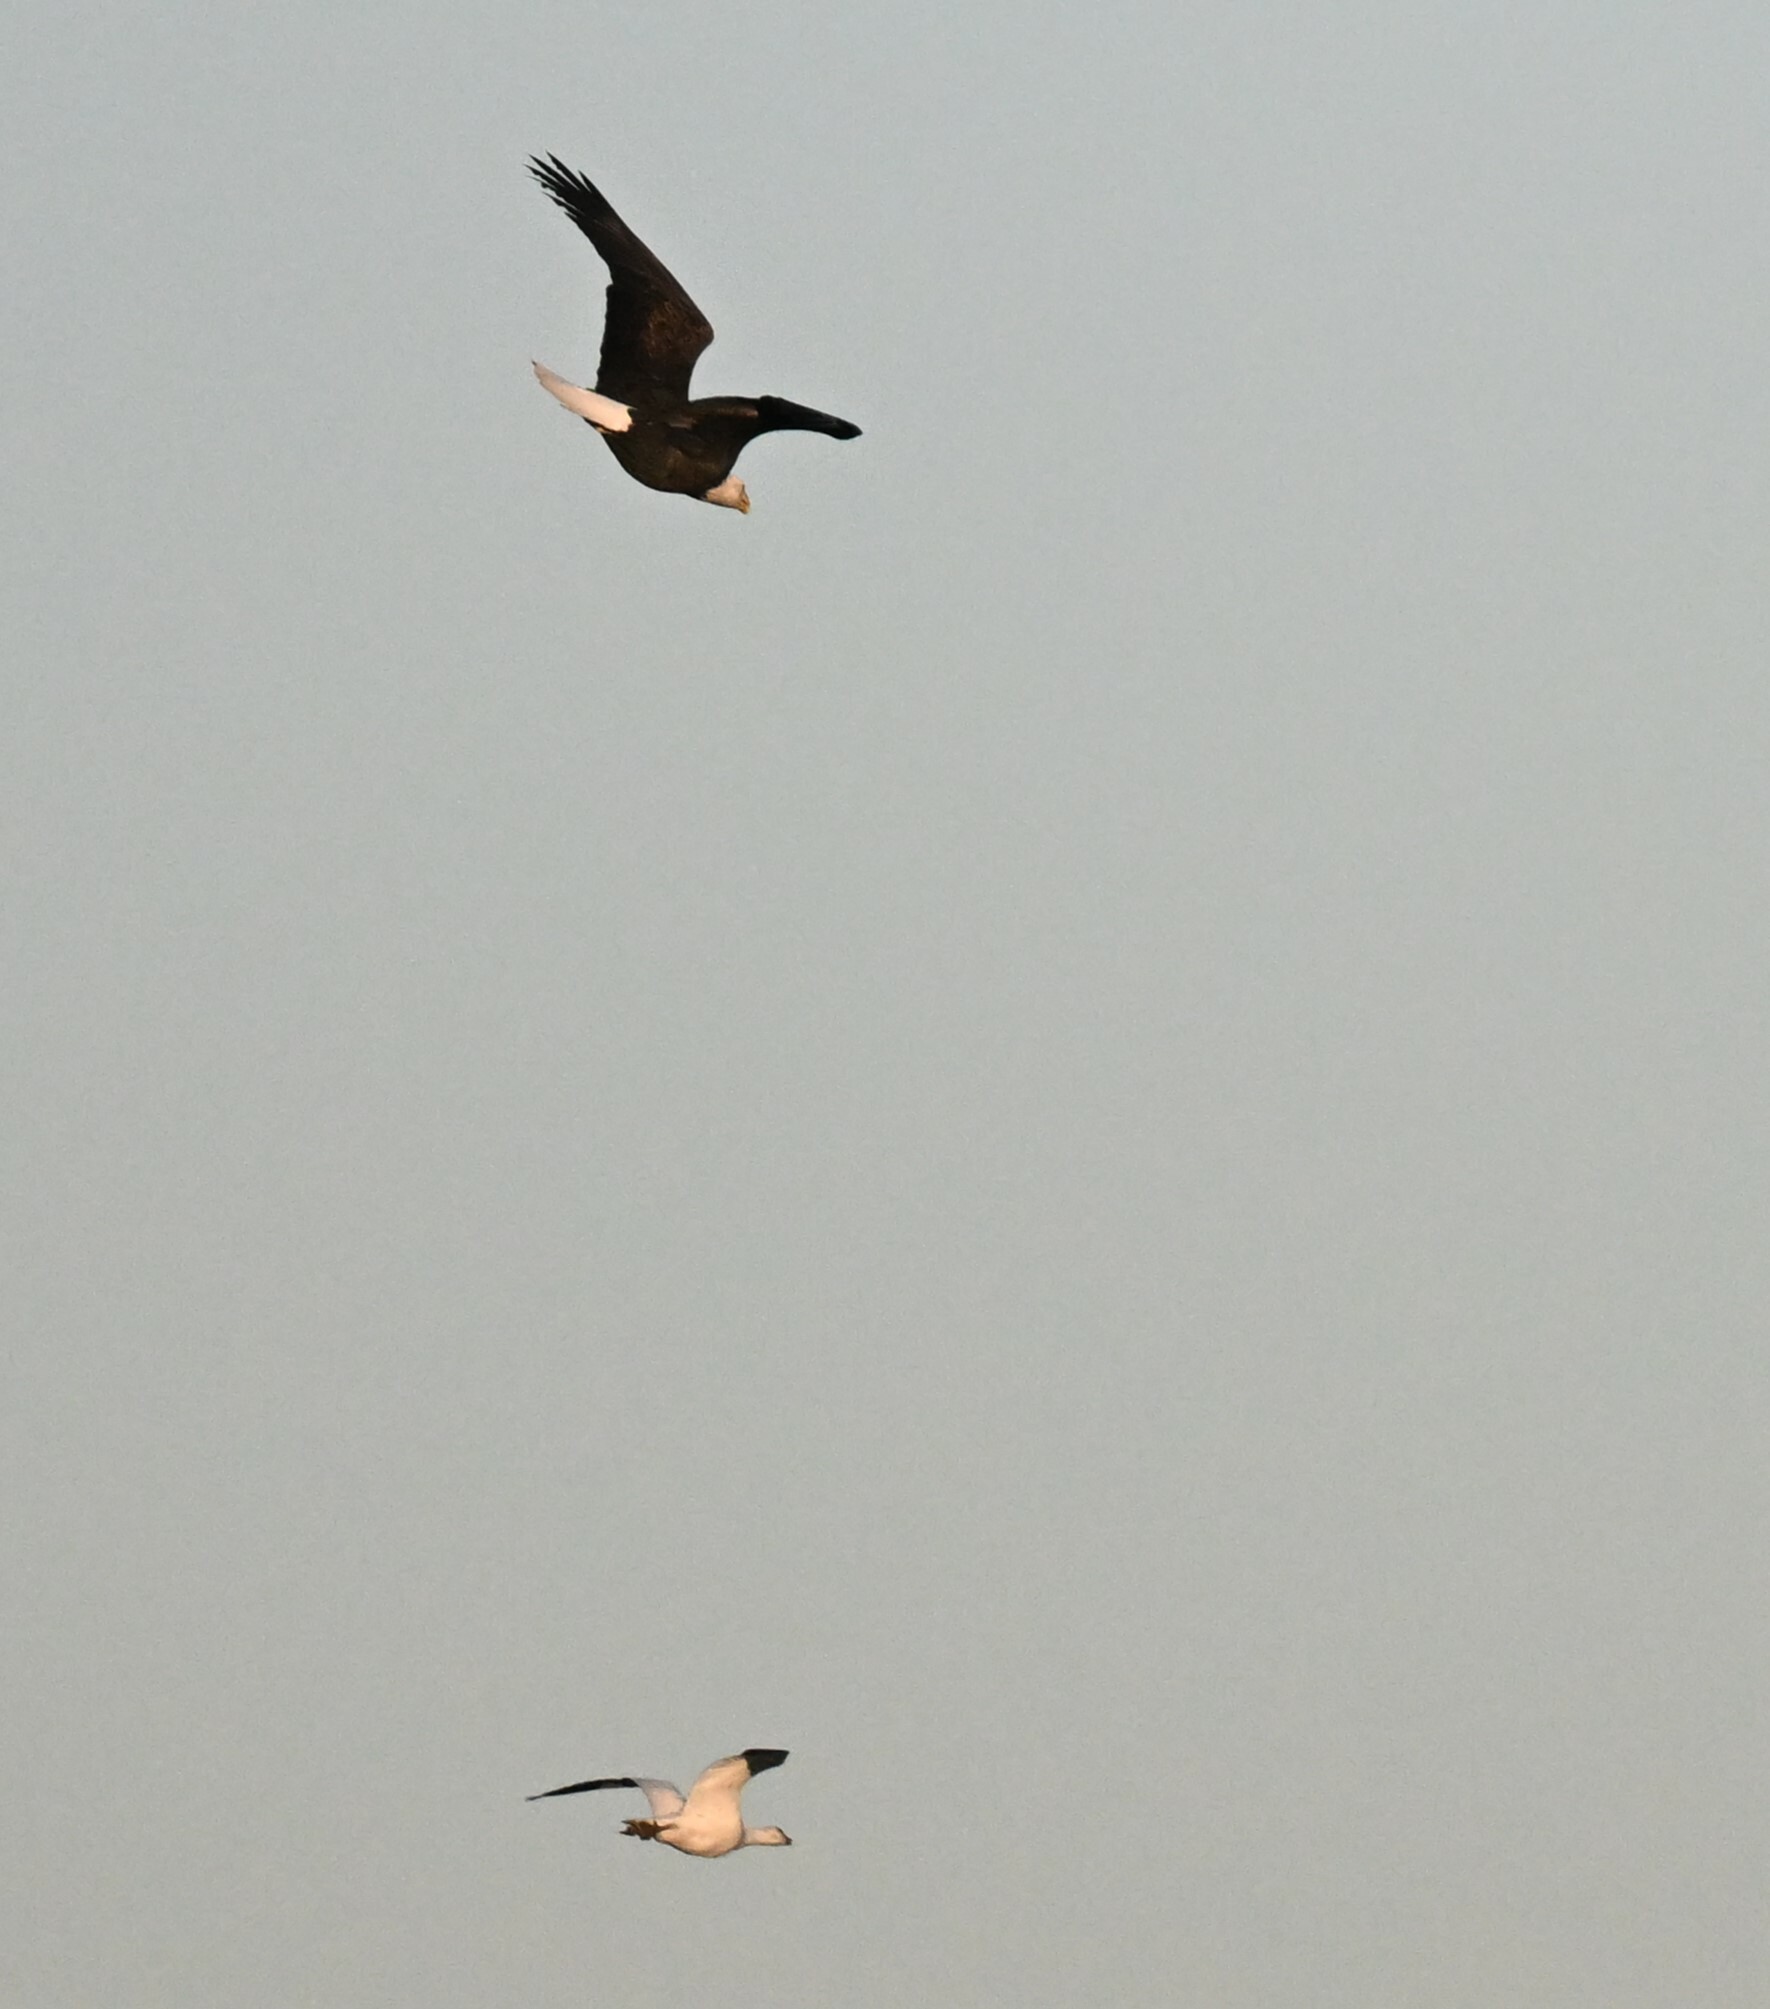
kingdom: Animalia
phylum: Chordata
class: Aves
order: Accipitriformes
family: Accipitridae
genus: Haliaeetus
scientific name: Haliaeetus leucocephalus
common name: Bald eagle
